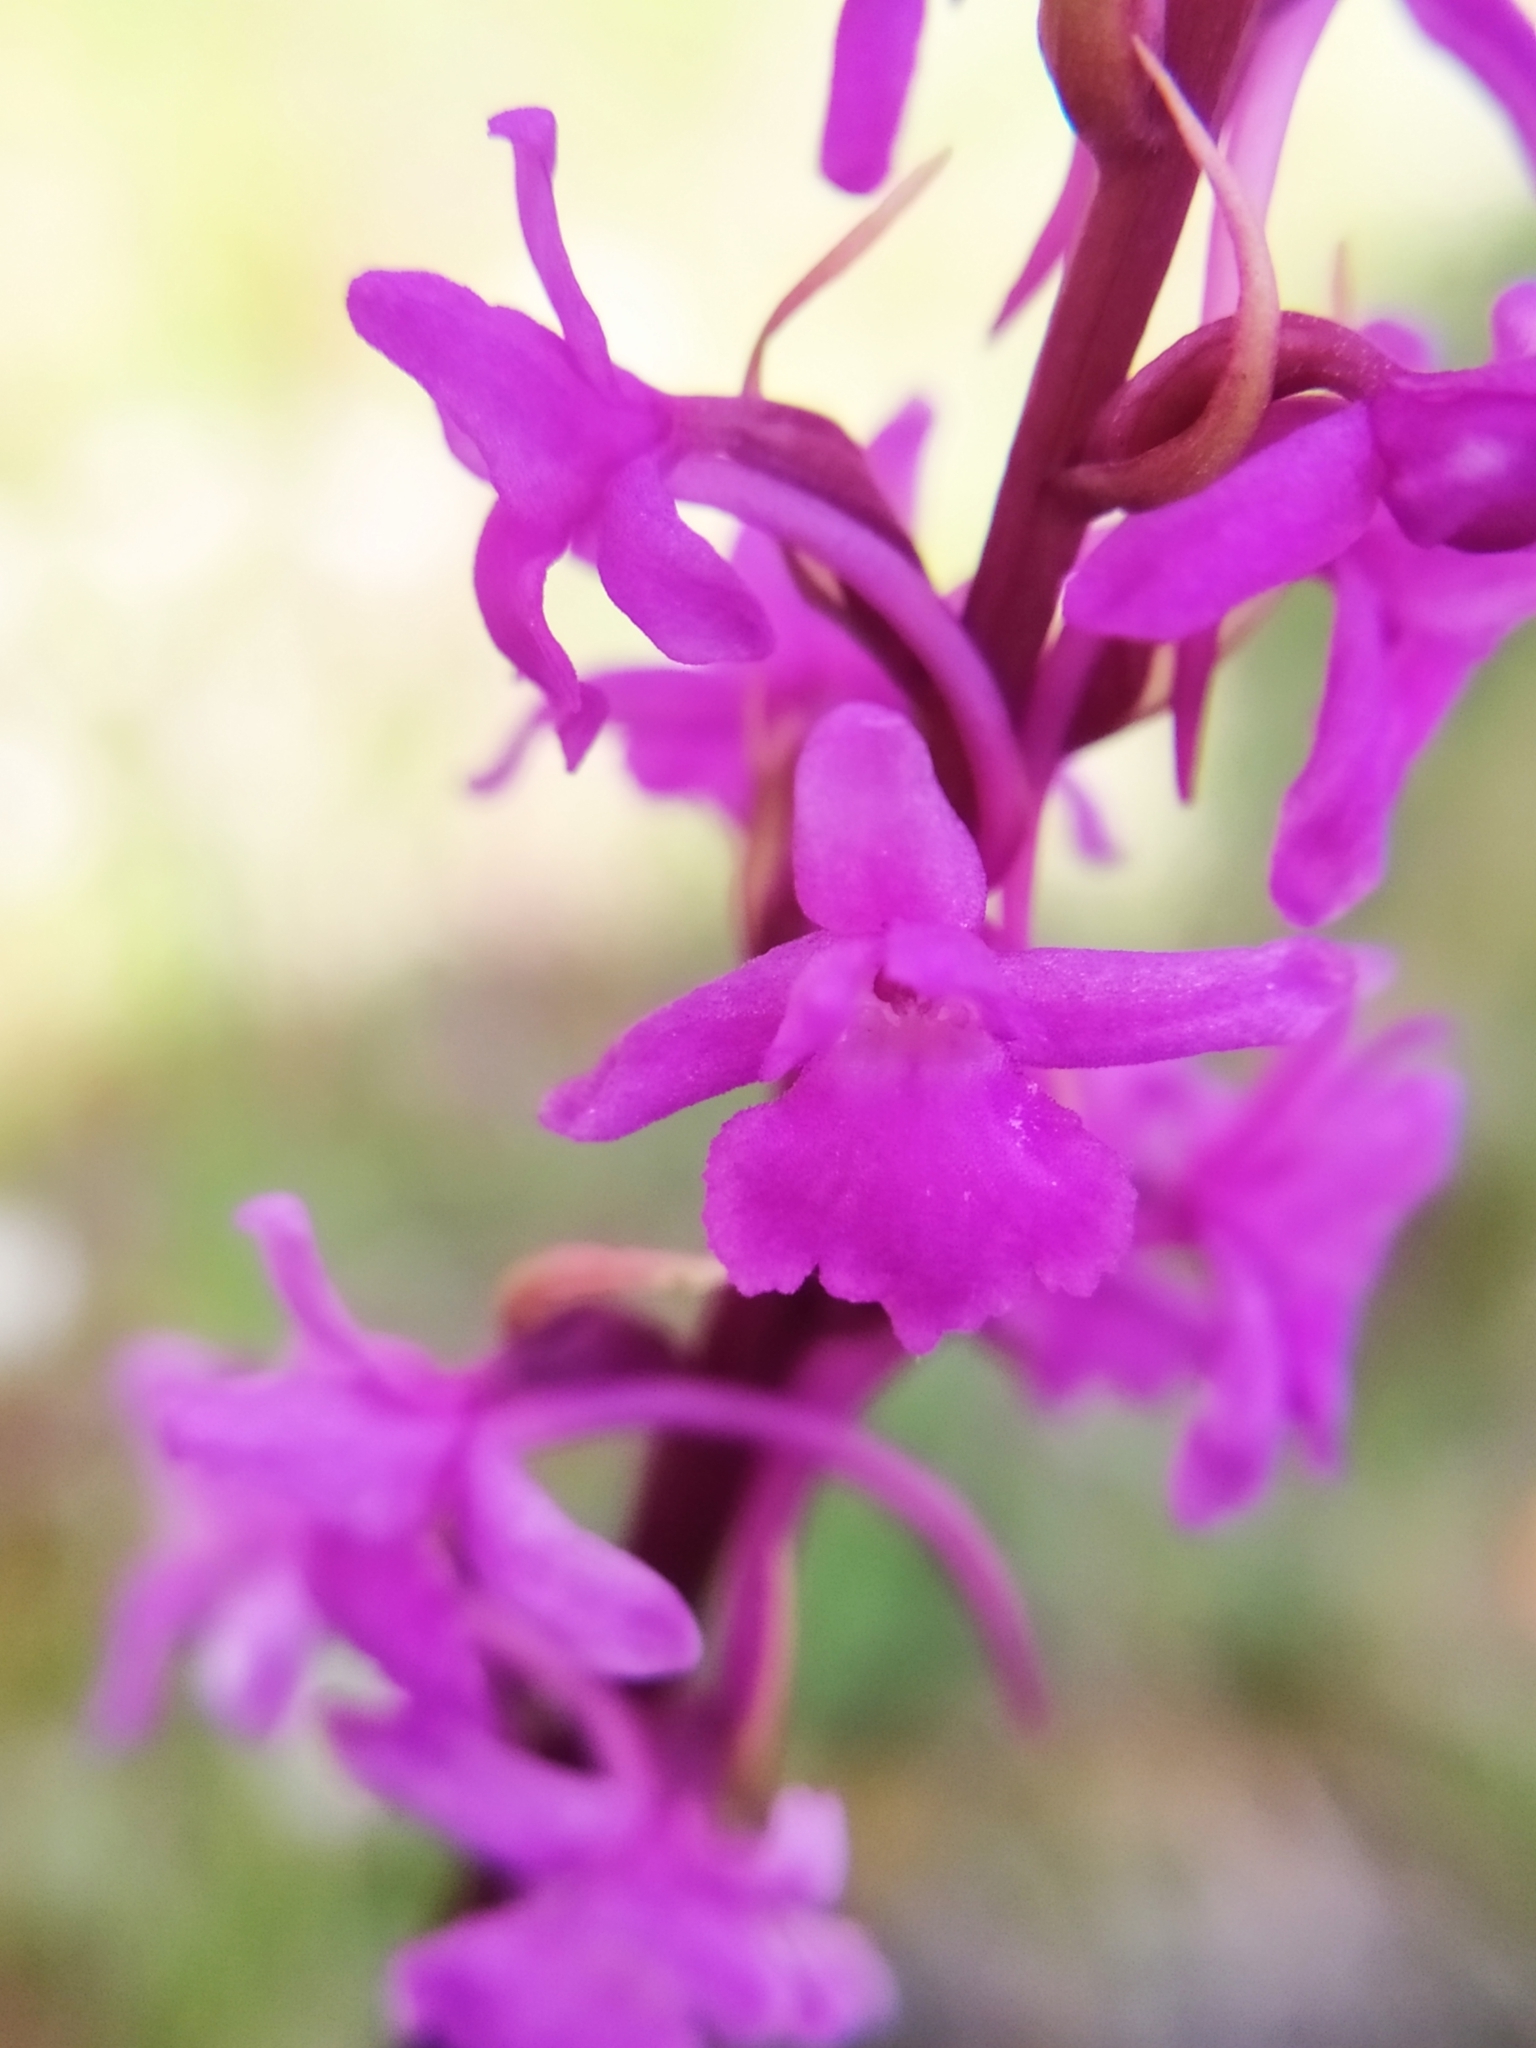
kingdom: Plantae
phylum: Tracheophyta
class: Liliopsida
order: Asparagales
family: Orchidaceae
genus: Gymnadenia
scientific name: Gymnadenia conopsea
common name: Fragrant orchid
